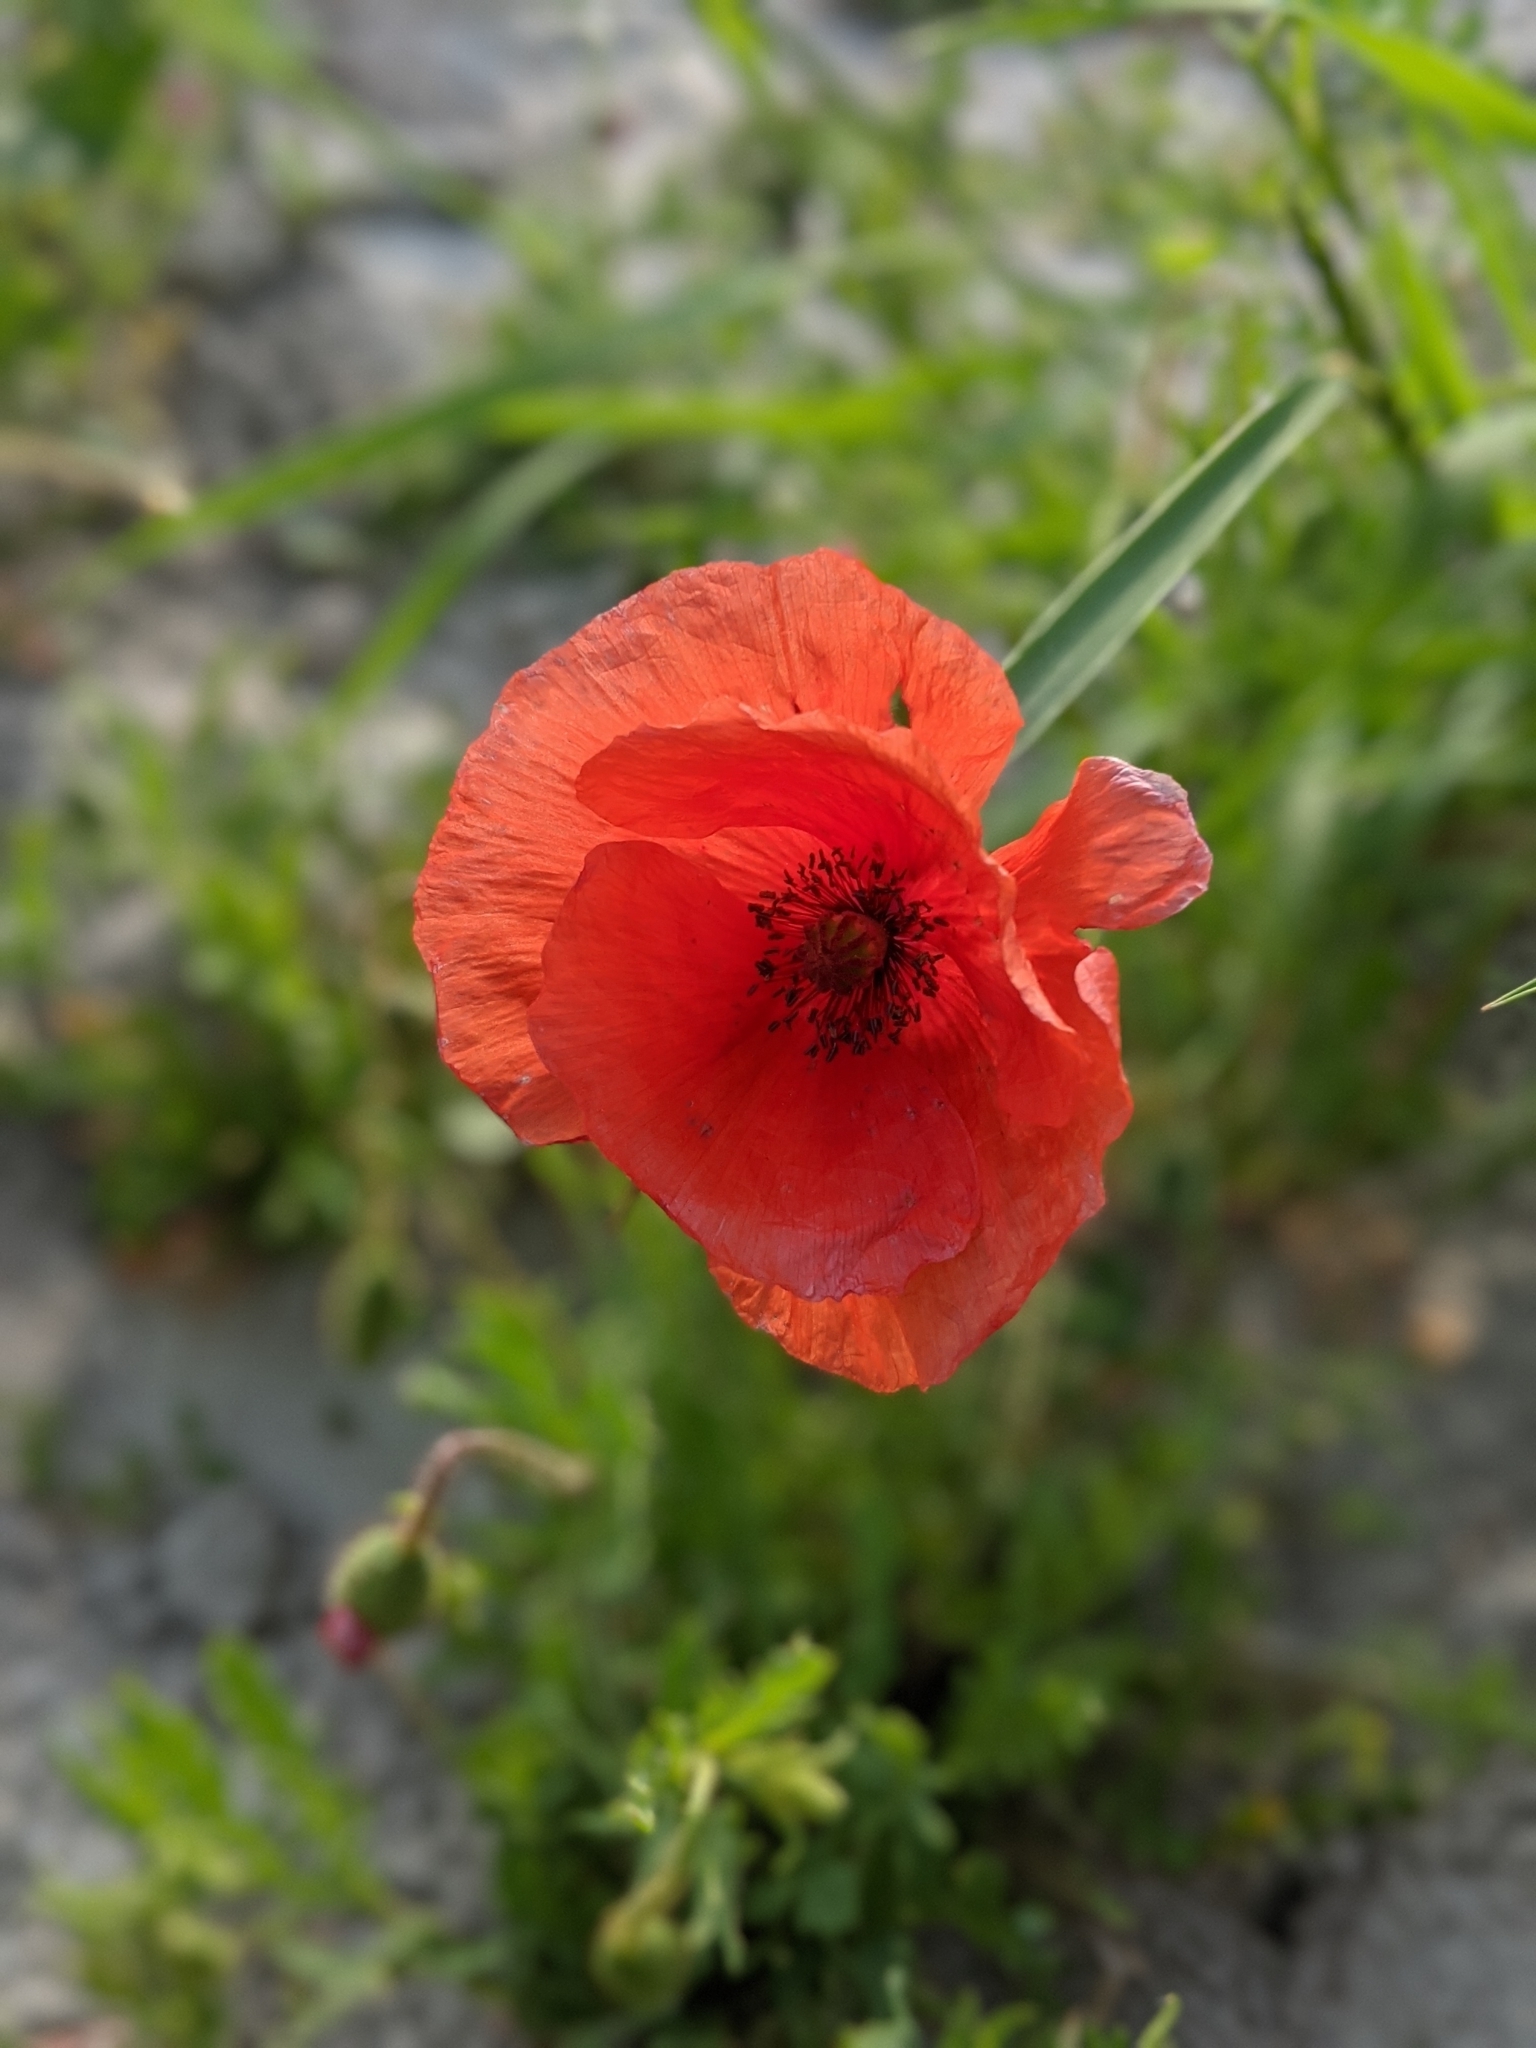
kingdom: Plantae
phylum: Tracheophyta
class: Magnoliopsida
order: Ranunculales
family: Papaveraceae
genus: Papaver
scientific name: Papaver rhoeas
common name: Corn poppy
